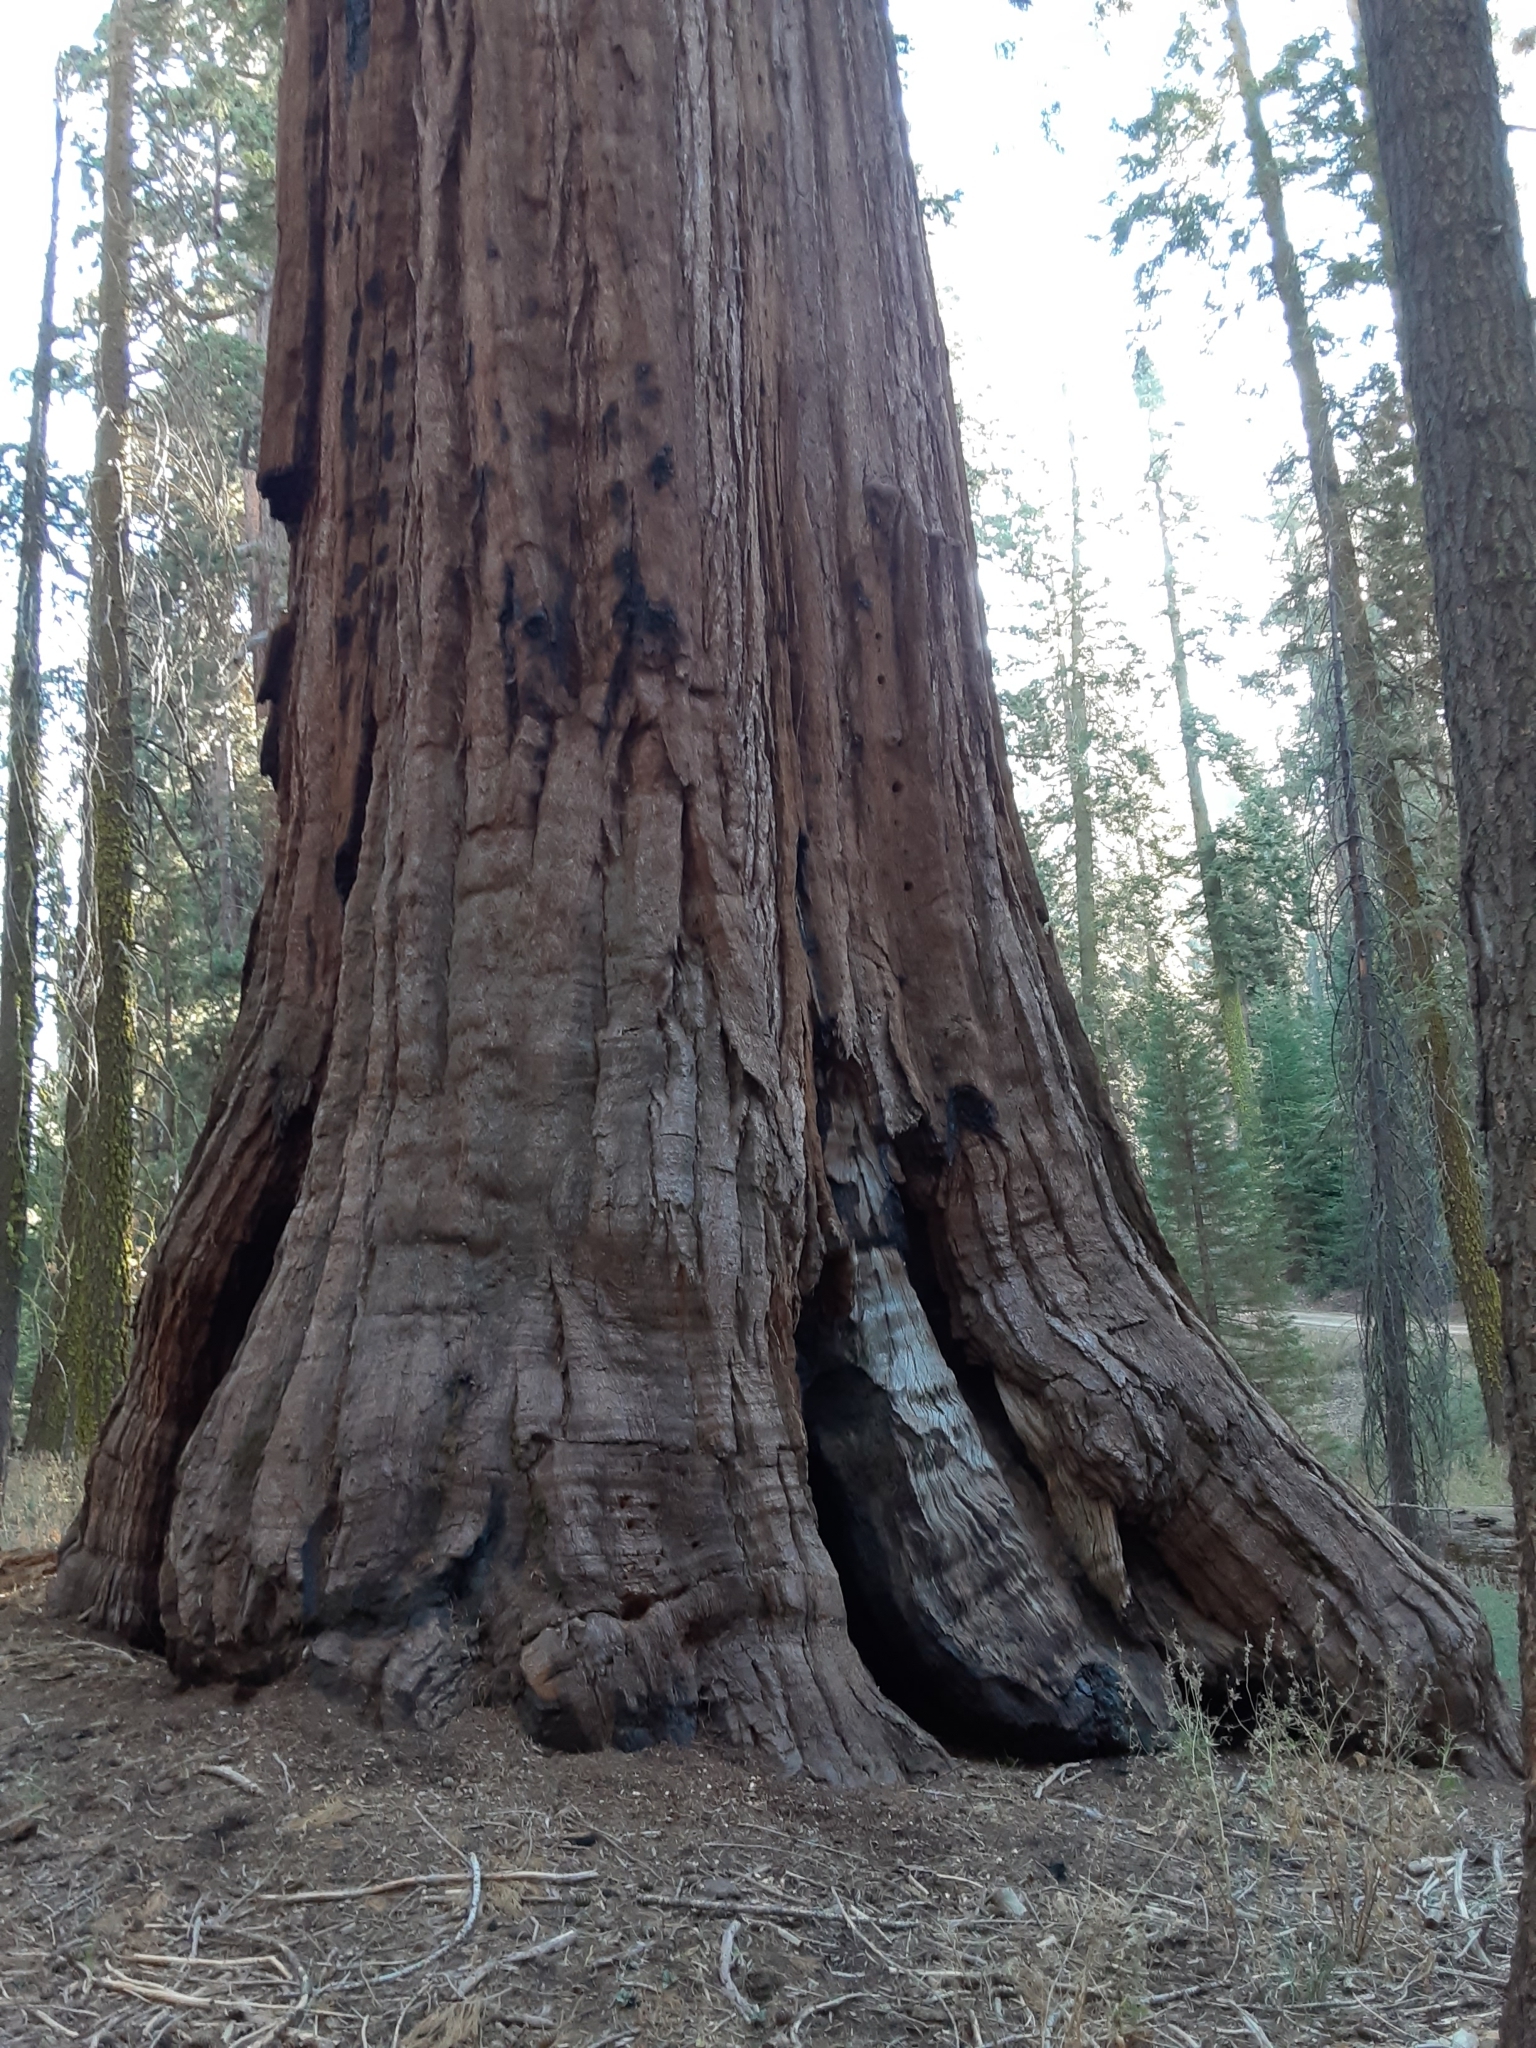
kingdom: Plantae
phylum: Tracheophyta
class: Pinopsida
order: Pinales
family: Cupressaceae
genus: Sequoiadendron
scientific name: Sequoiadendron giganteum
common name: Wellingtonia
